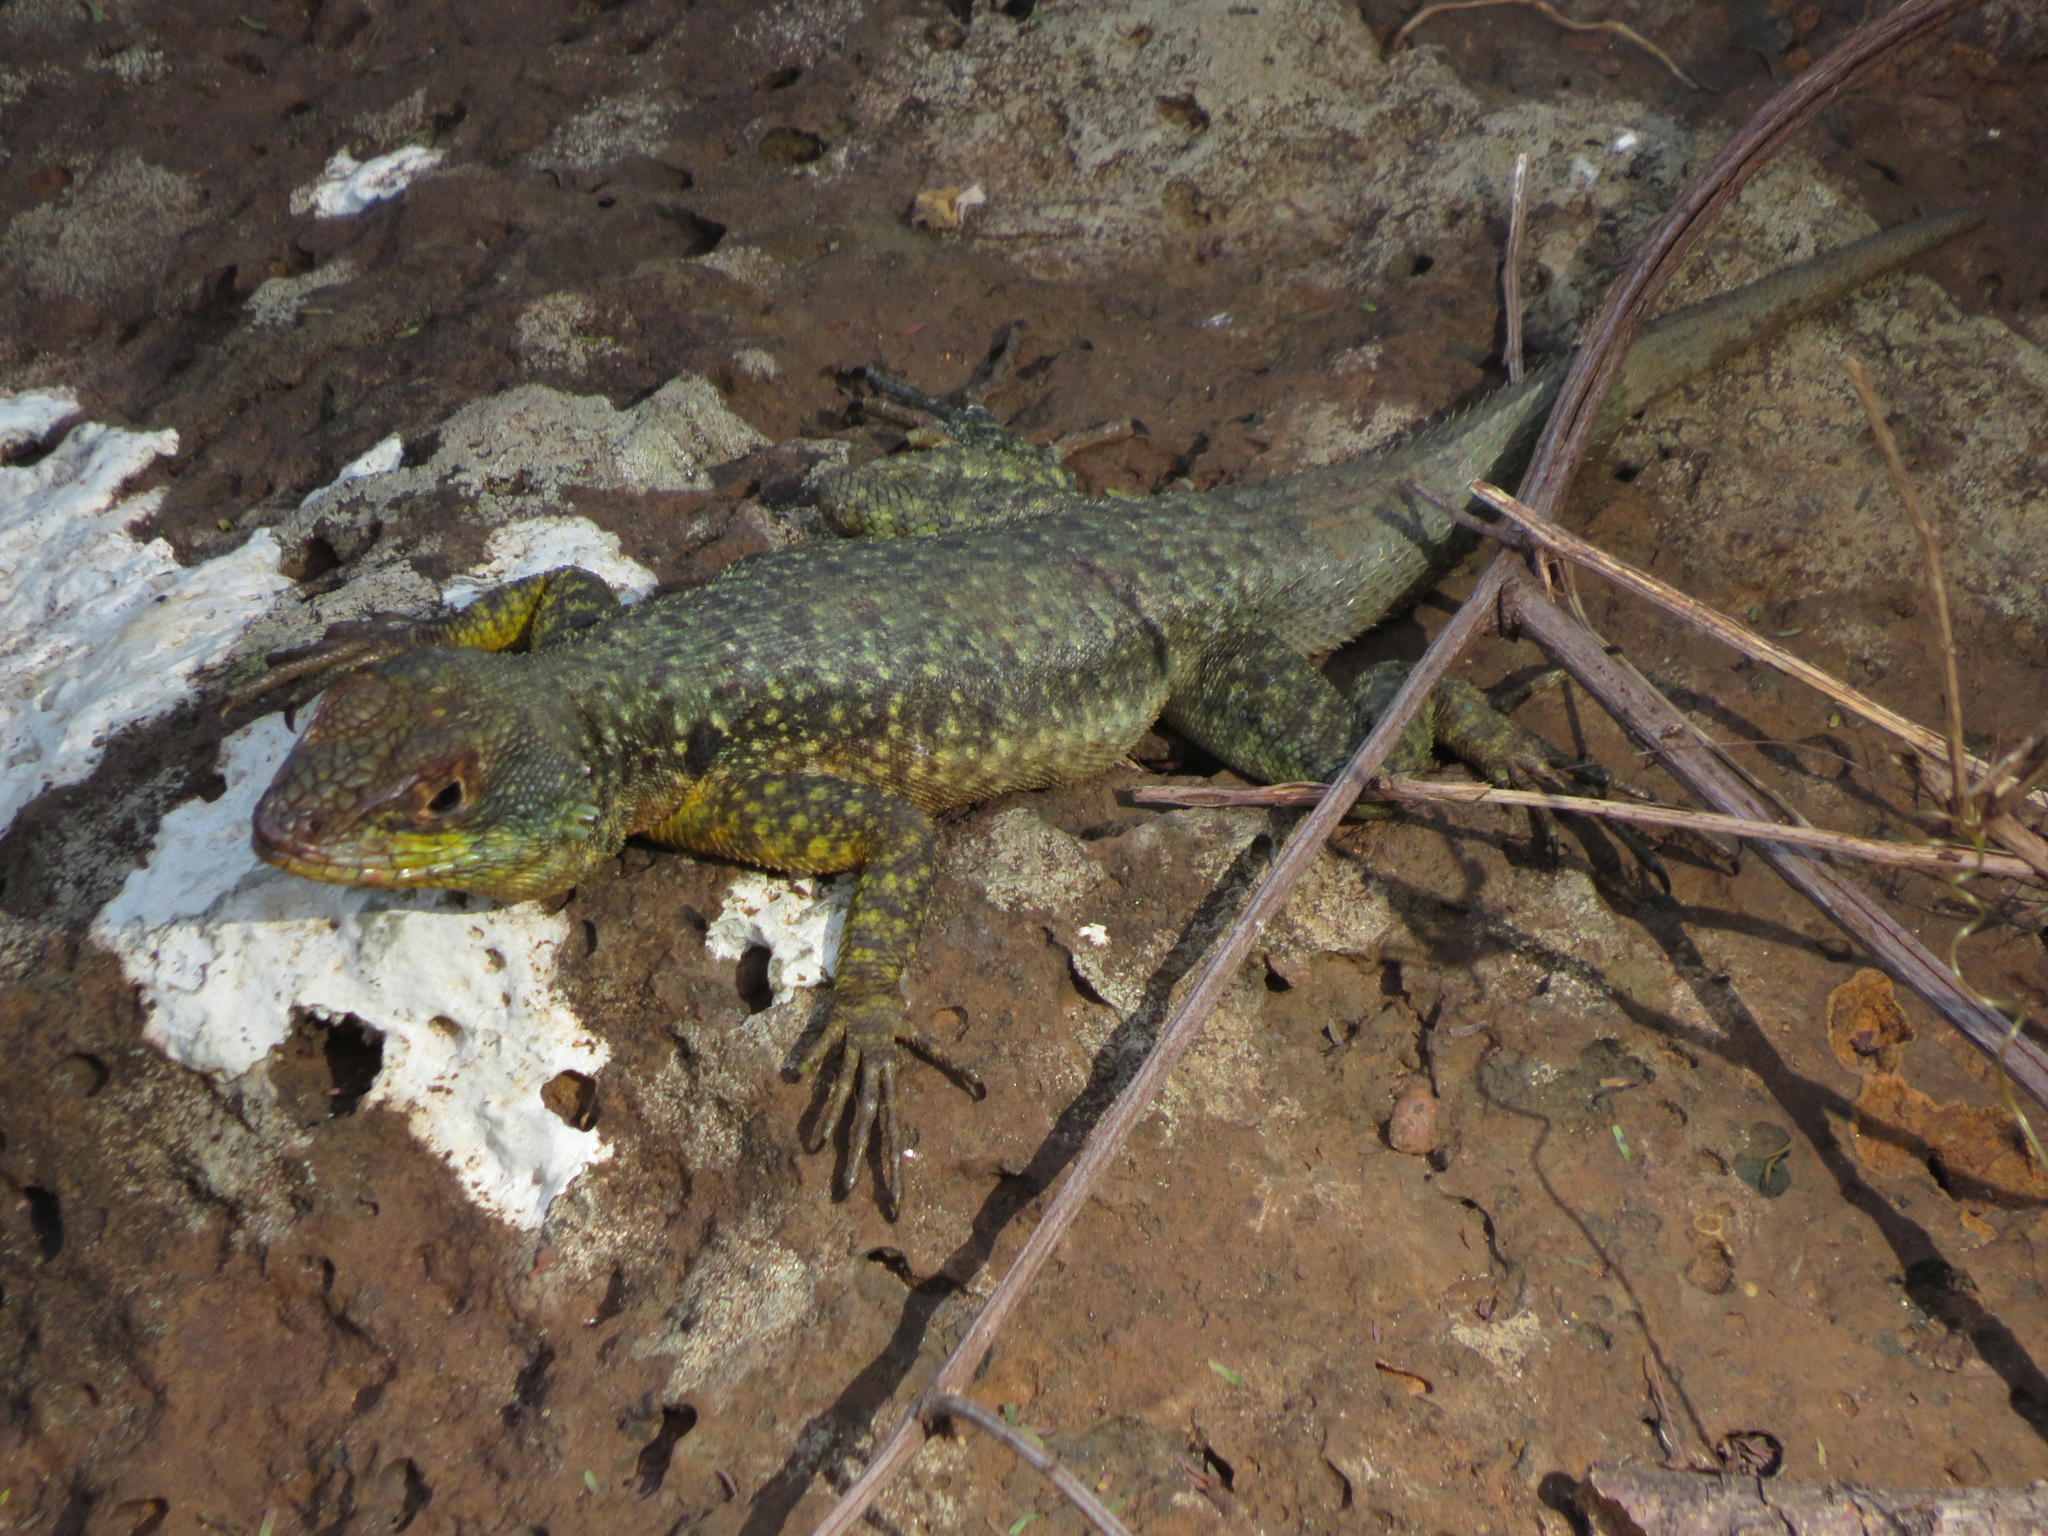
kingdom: Animalia
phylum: Chordata
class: Squamata
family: Tropiduridae
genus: Tropidurus
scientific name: Tropidurus catalanensis
